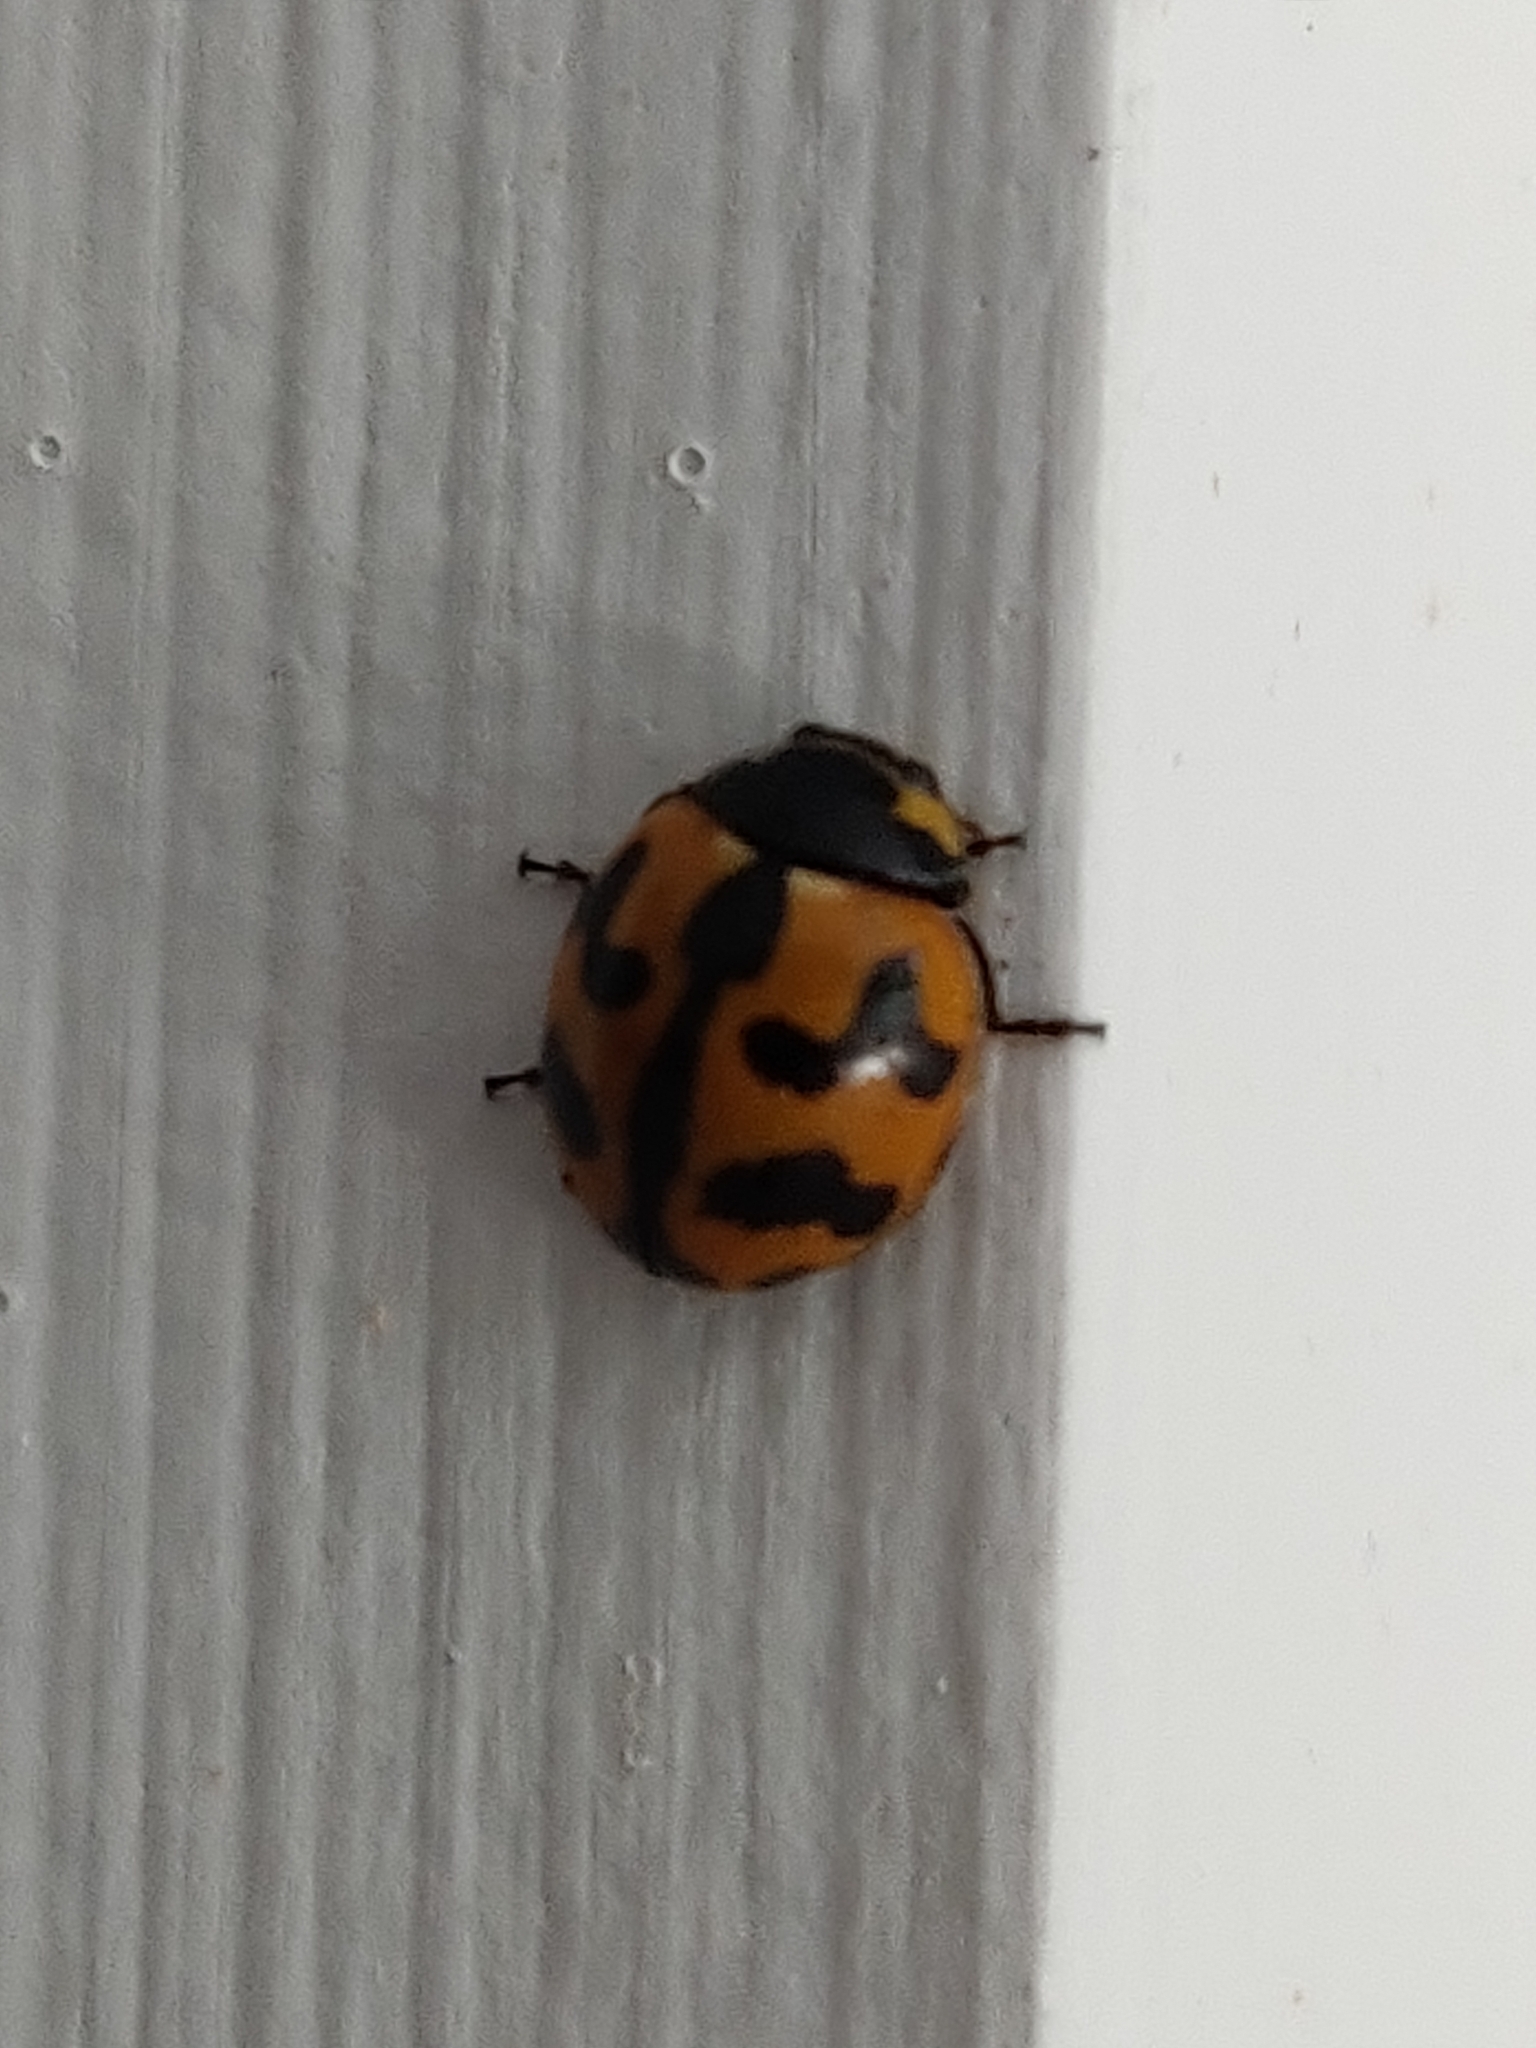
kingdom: Animalia
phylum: Arthropoda
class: Insecta
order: Coleoptera
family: Coccinellidae
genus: Coccinella
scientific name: Coccinella transversalis
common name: Transverse lady beetle
